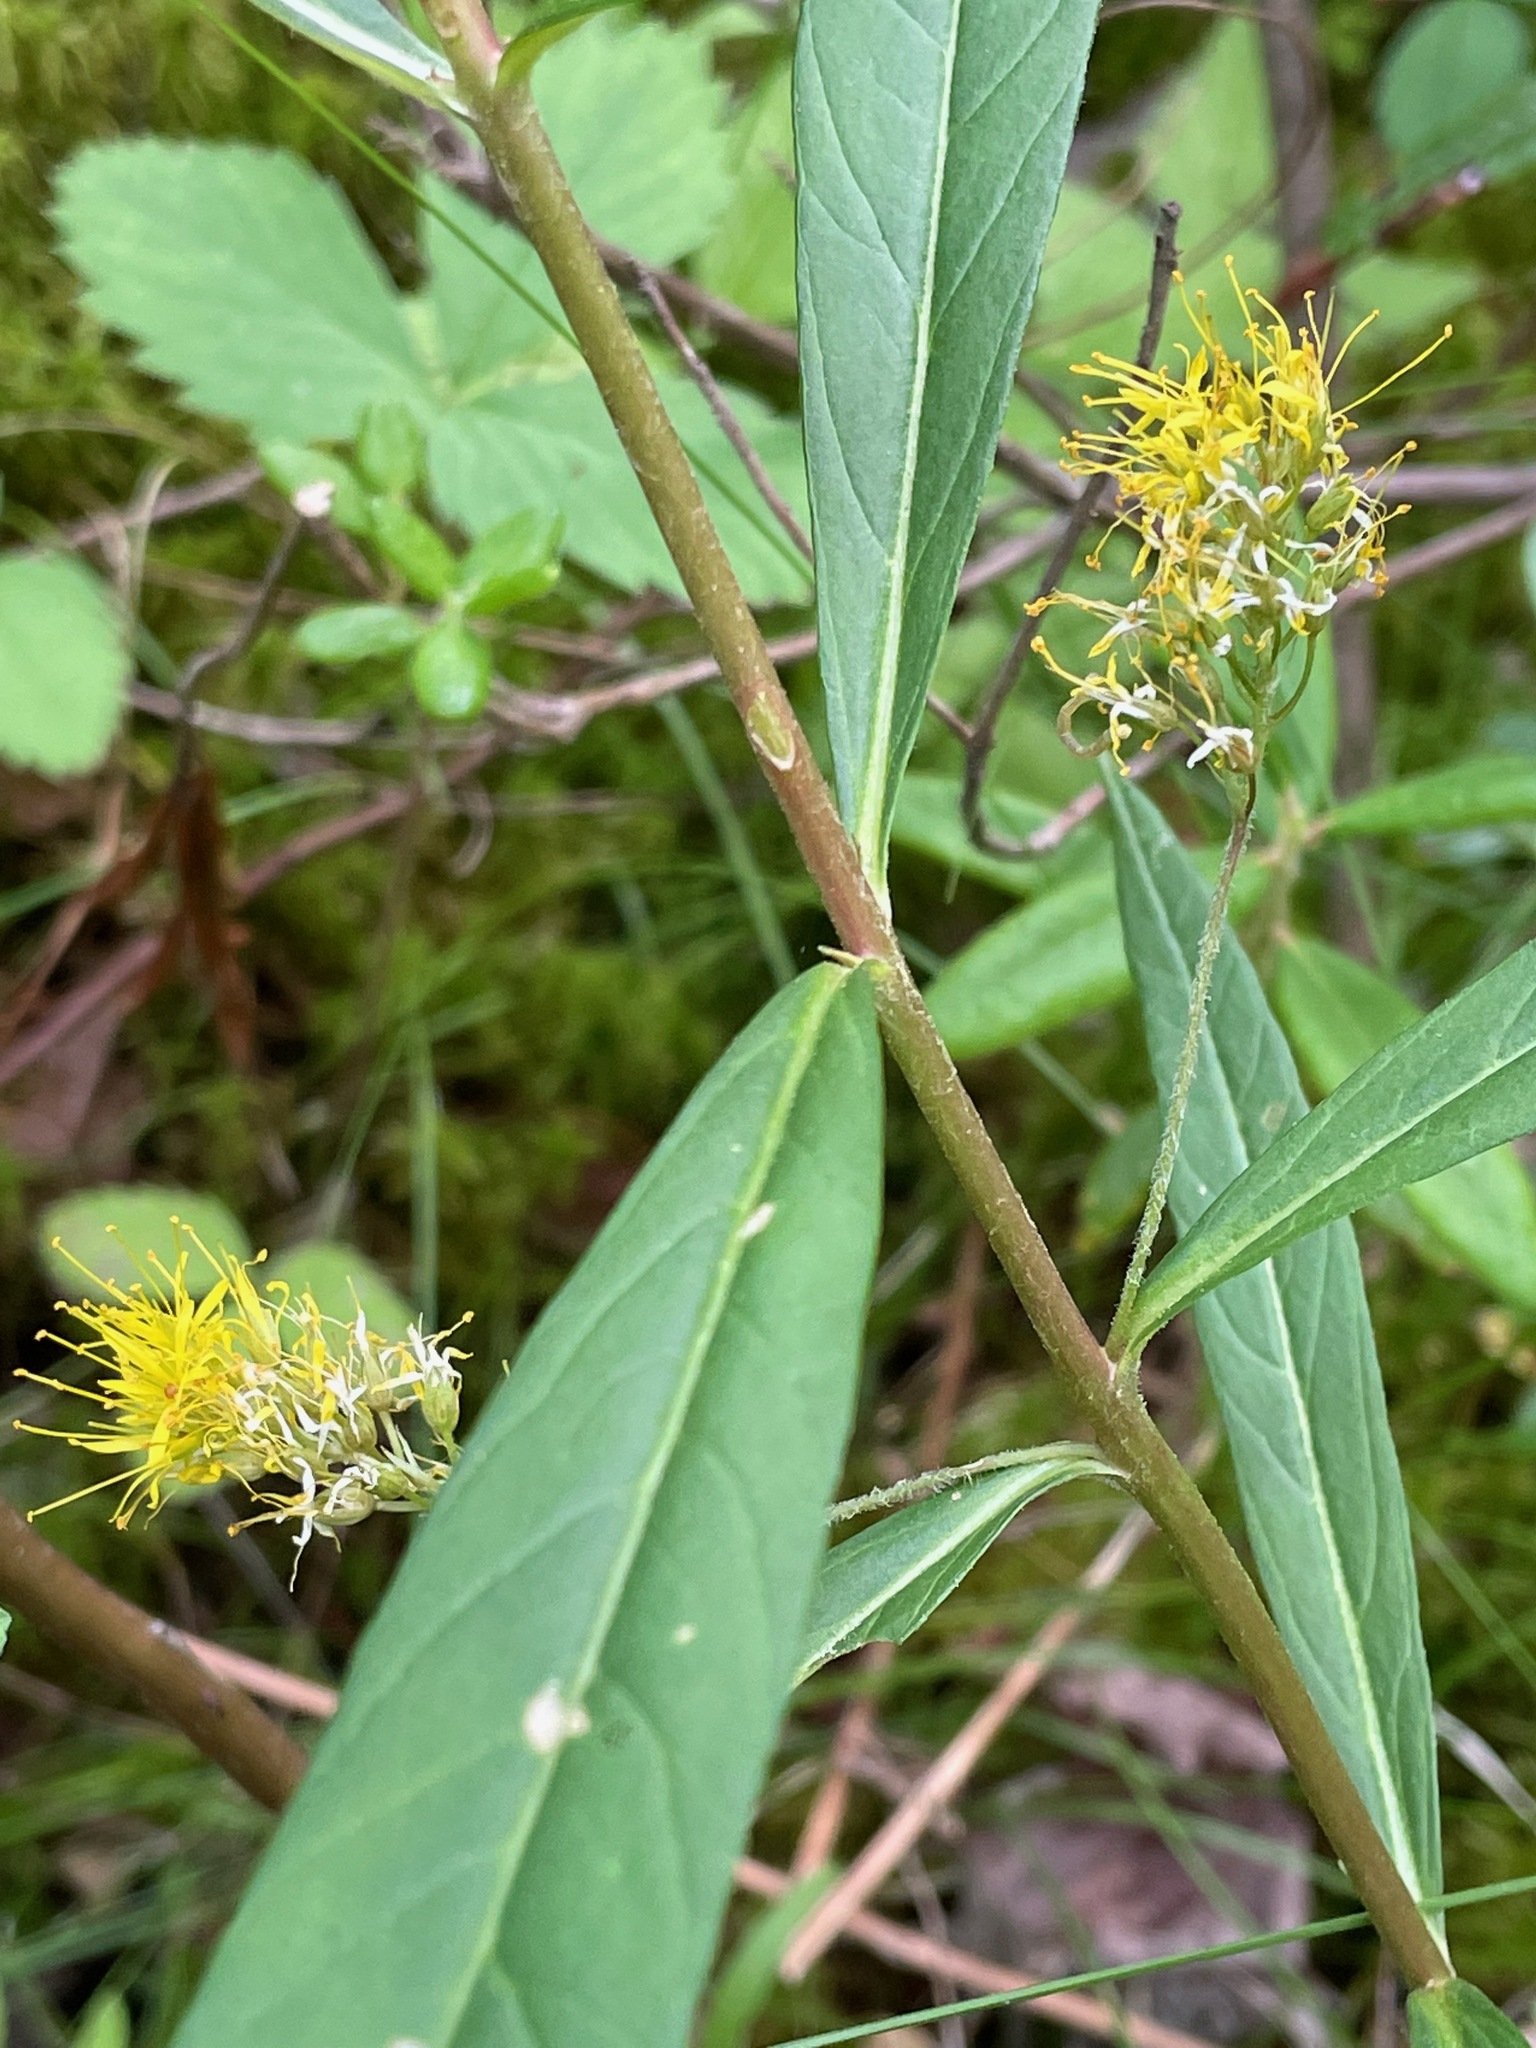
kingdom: Plantae
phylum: Tracheophyta
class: Magnoliopsida
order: Ericales
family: Primulaceae
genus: Lysimachia
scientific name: Lysimachia thyrsiflora
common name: Tufted loosestrife
